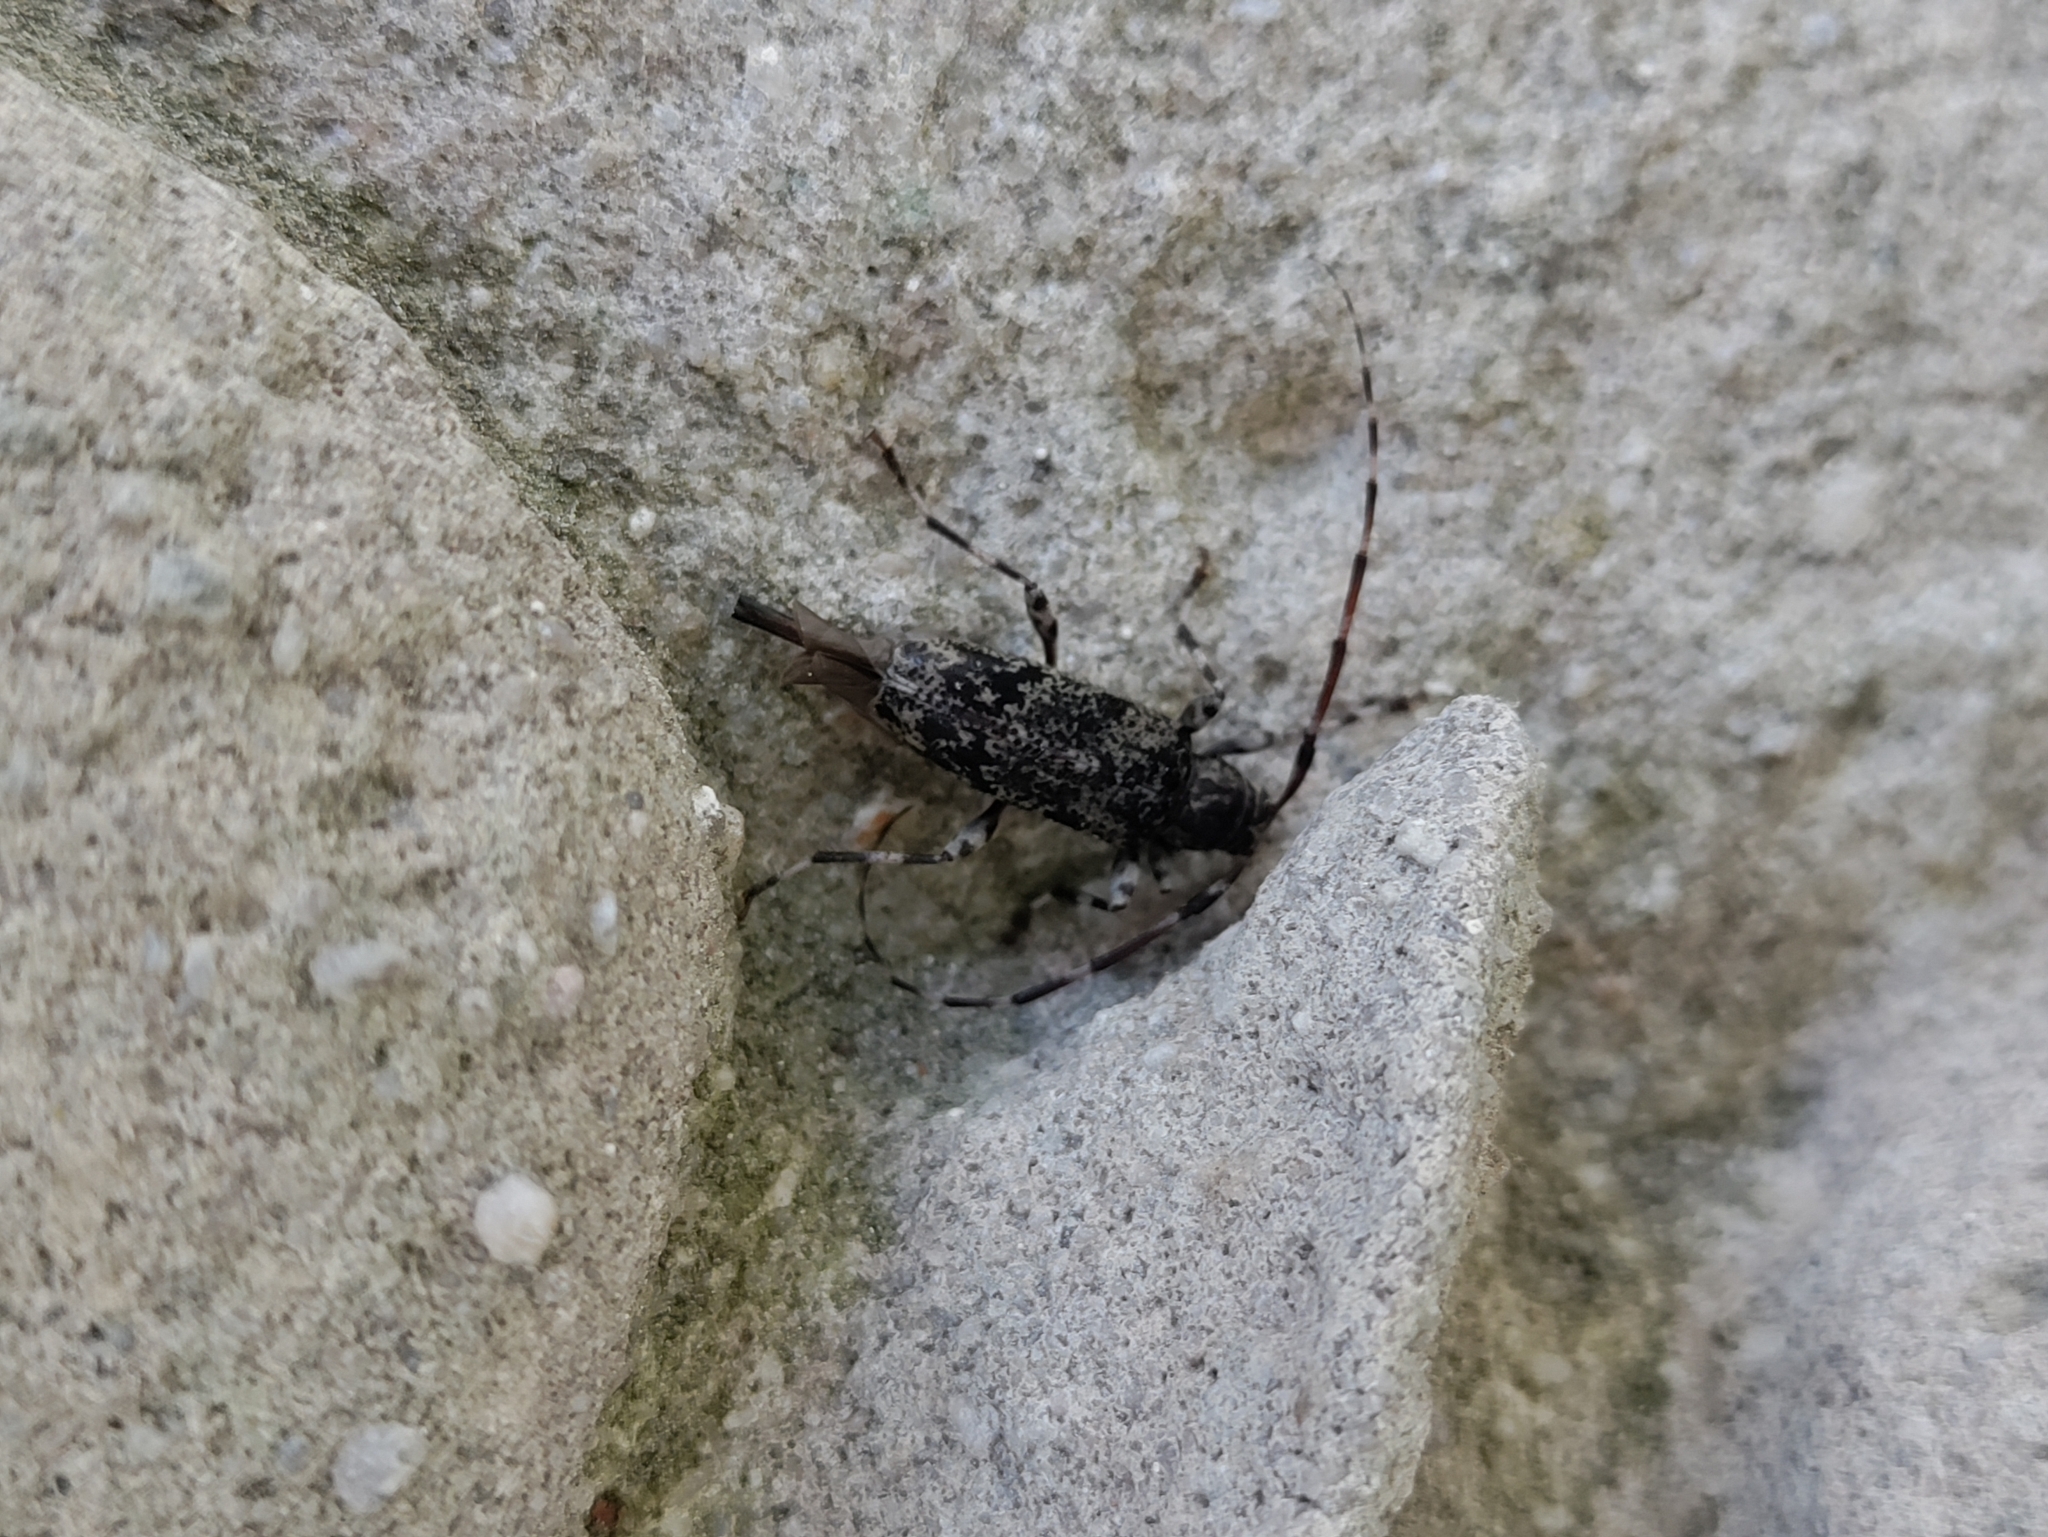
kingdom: Animalia
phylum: Arthropoda
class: Insecta
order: Coleoptera
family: Cerambycidae
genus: Graphisurus
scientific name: Graphisurus fasciatus
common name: Banded graphisurus
